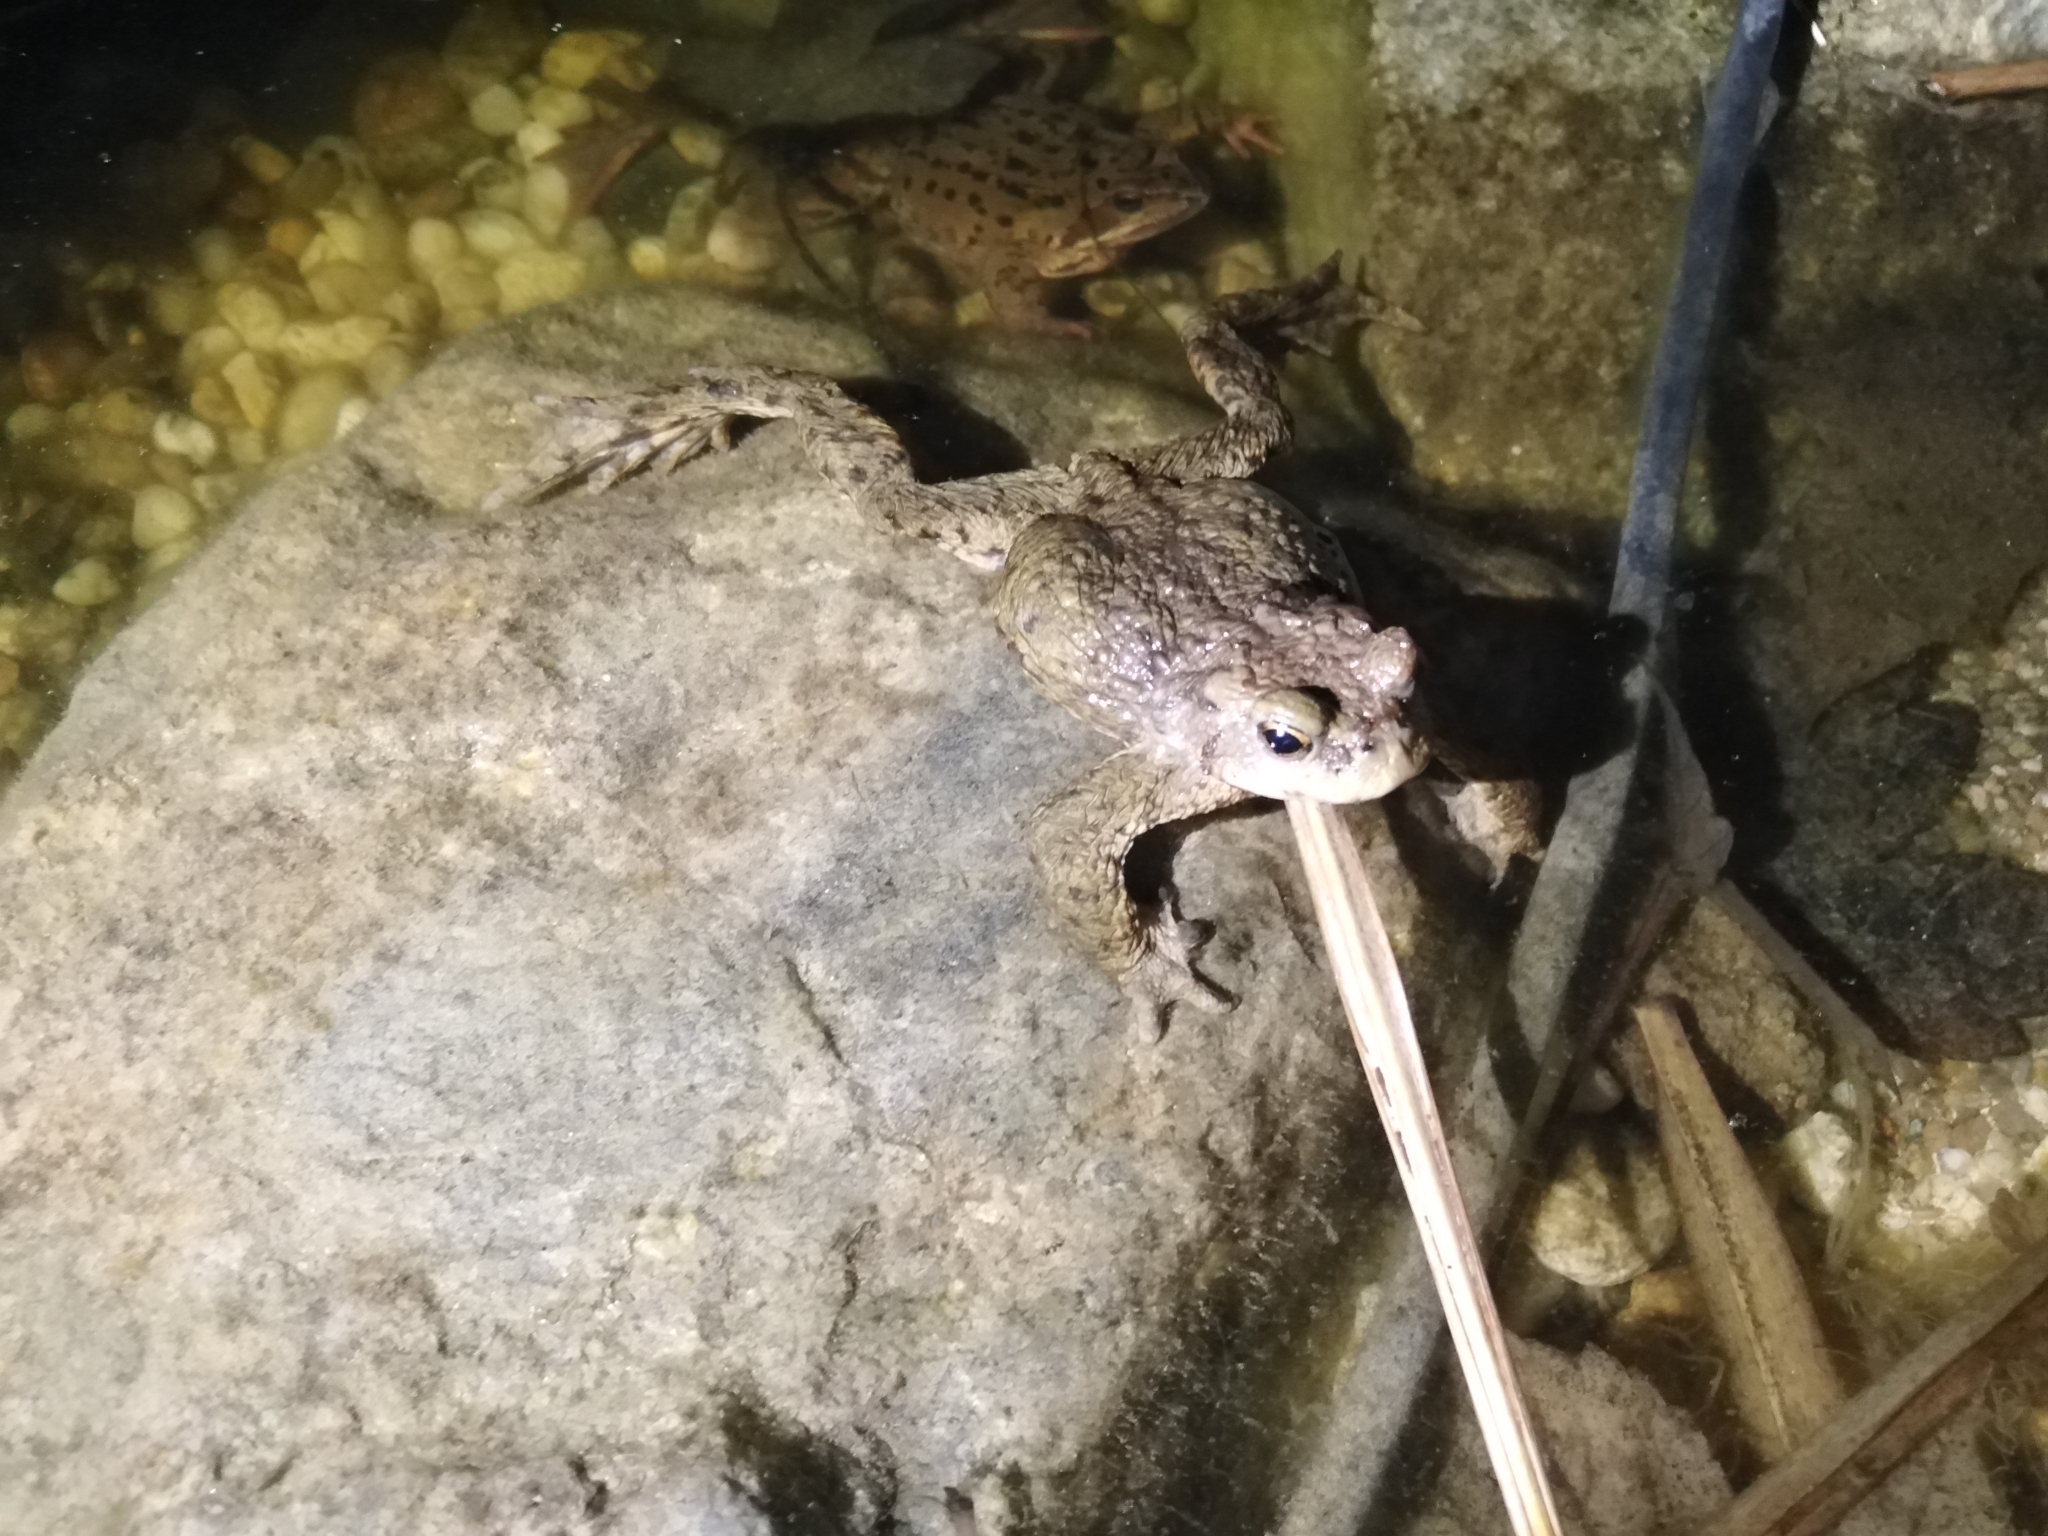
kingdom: Animalia
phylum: Chordata
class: Amphibia
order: Anura
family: Bufonidae
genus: Bufo
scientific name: Bufo bufo
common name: Common toad
